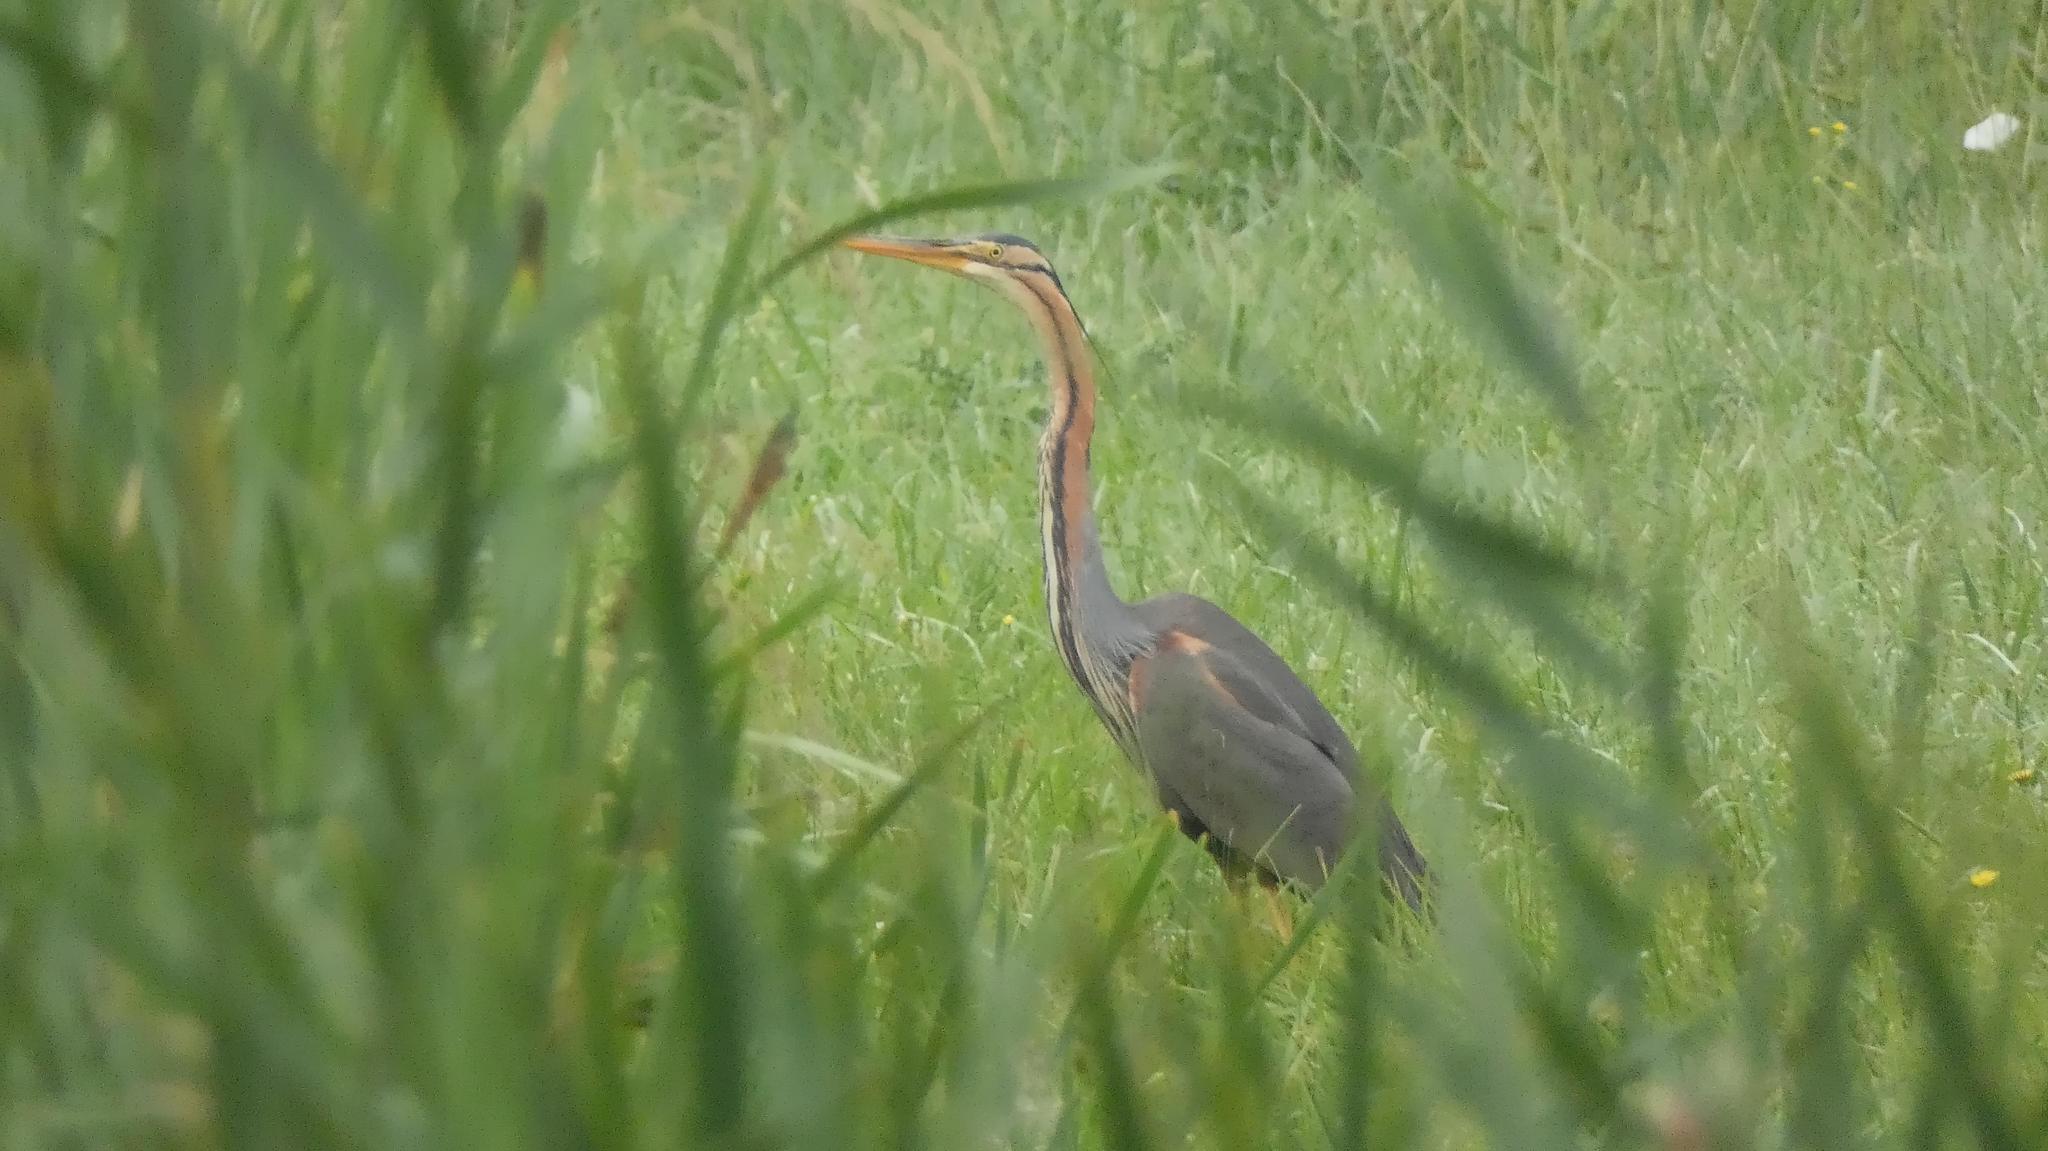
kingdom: Animalia
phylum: Chordata
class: Aves
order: Pelecaniformes
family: Ardeidae
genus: Ardea
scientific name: Ardea purpurea
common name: Purple heron
